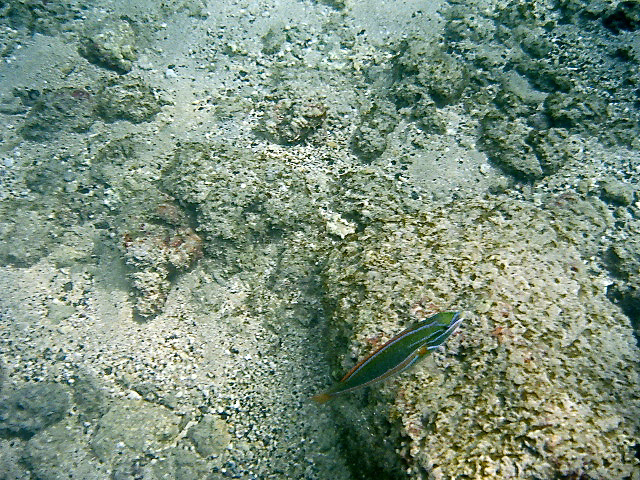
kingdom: Animalia
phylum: Chordata
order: Perciformes
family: Labridae
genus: Stethojulis
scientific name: Stethojulis balteata
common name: Belted wrasse
